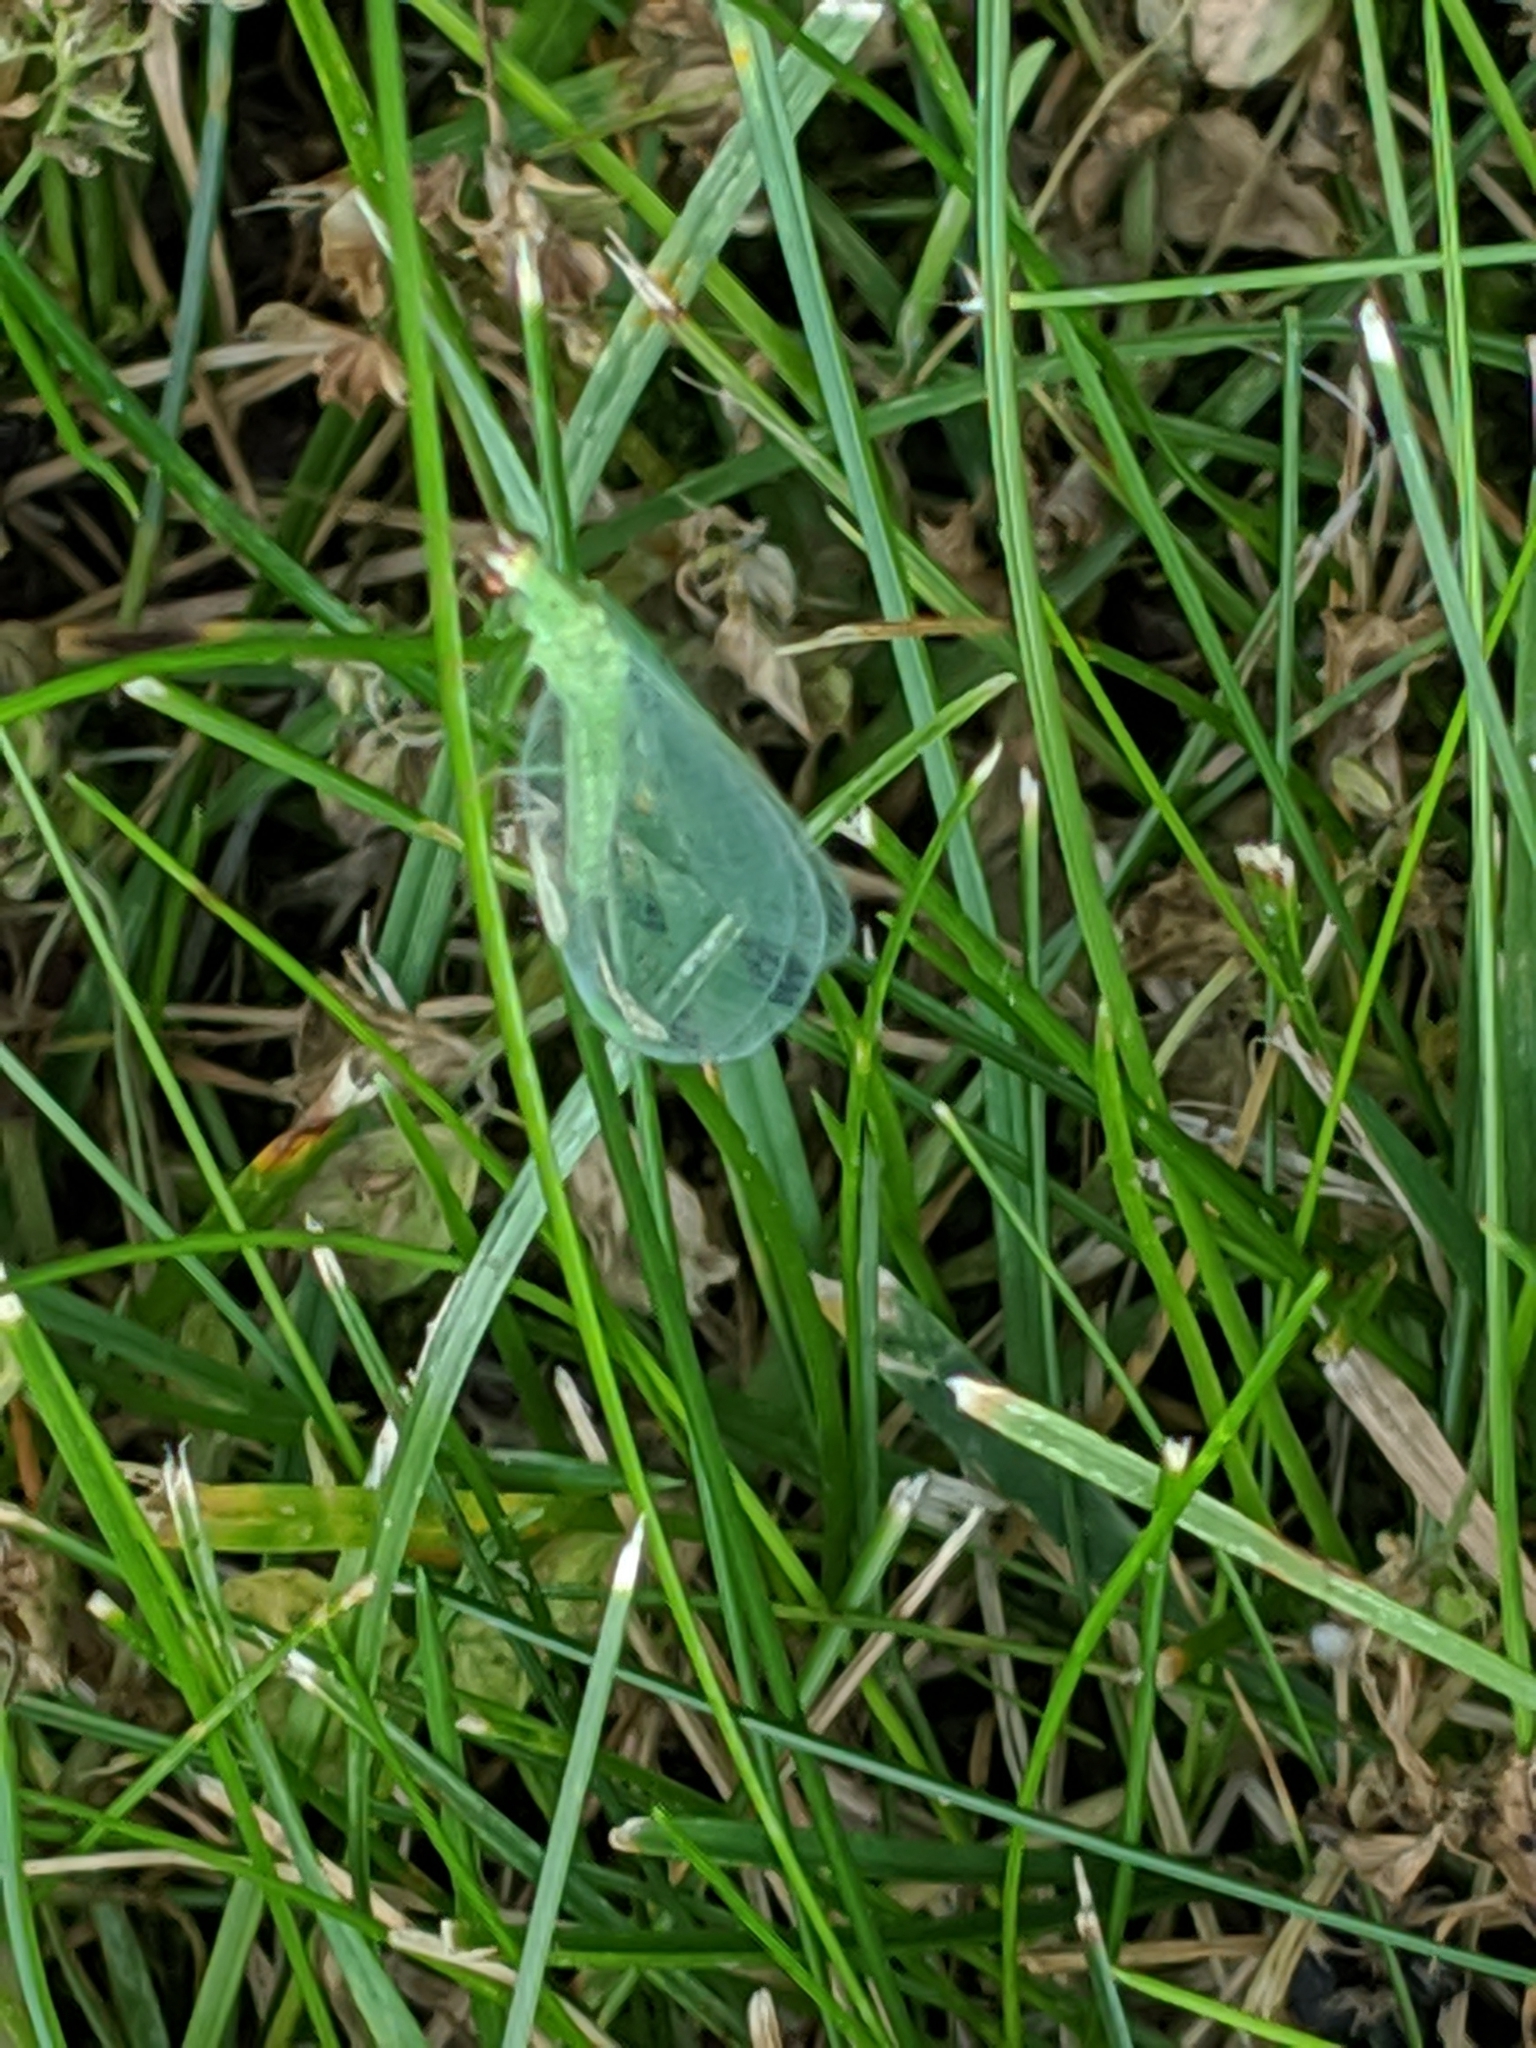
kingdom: Animalia
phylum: Arthropoda
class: Insecta
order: Neuroptera
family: Chrysopidae
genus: Chrysopa
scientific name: Chrysopa oculata
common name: Golden-eyed lacewing
